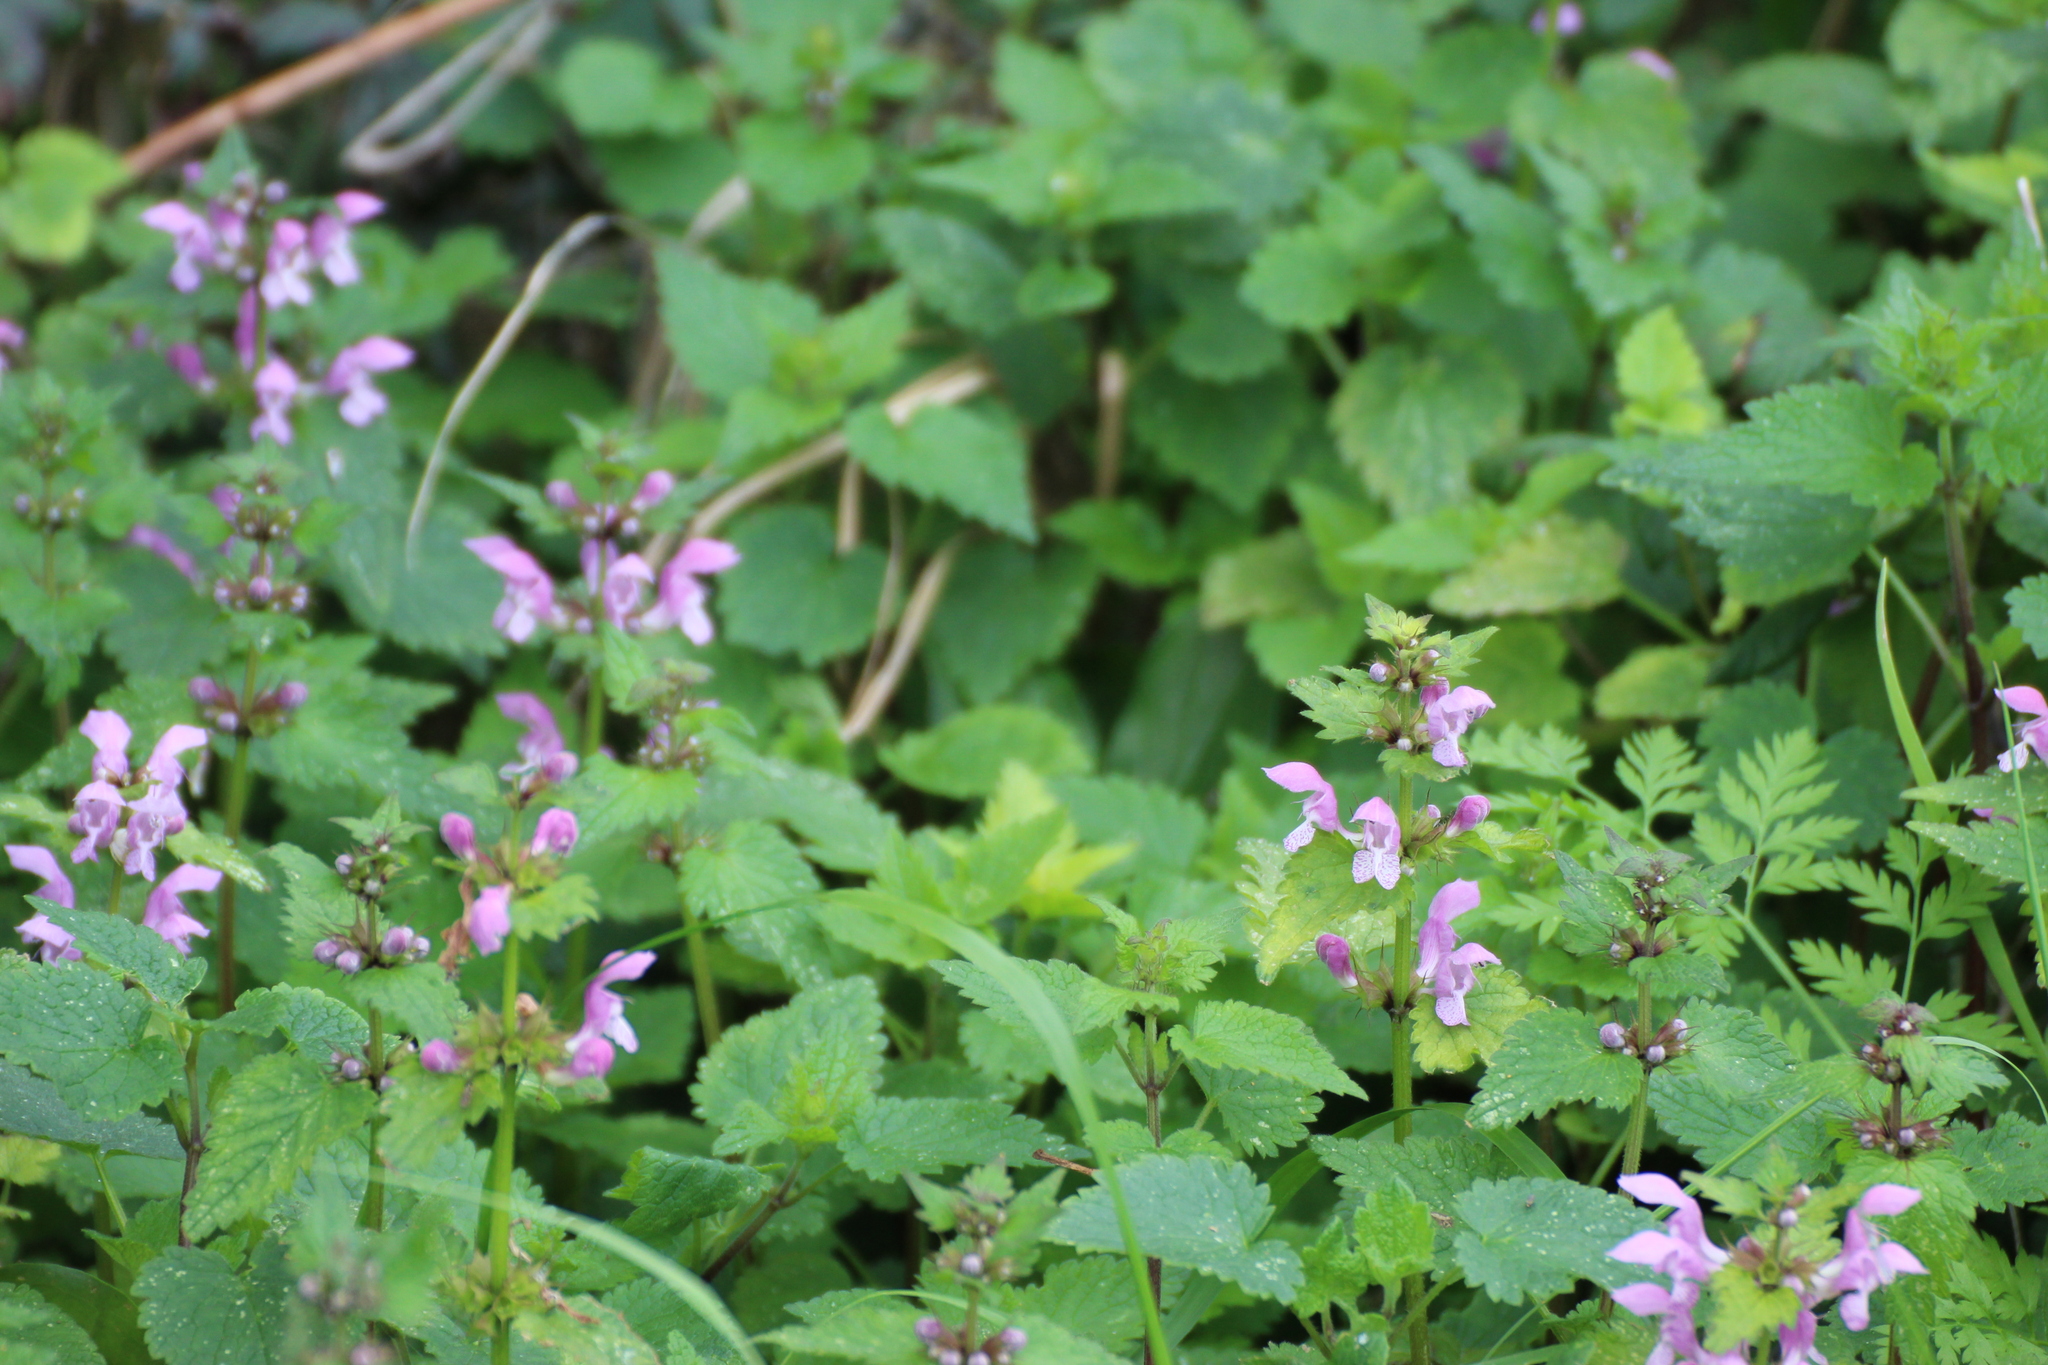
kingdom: Plantae
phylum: Tracheophyta
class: Magnoliopsida
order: Lamiales
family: Lamiaceae
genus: Lamium
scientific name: Lamium maculatum
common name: Spotted dead-nettle
